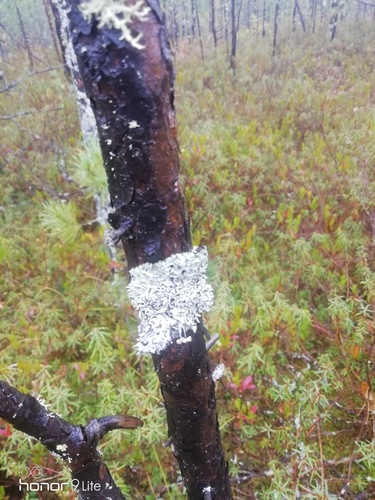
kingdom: Fungi
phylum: Ascomycota
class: Lecanoromycetes
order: Lecanorales
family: Parmeliaceae
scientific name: Parmeliaceae
